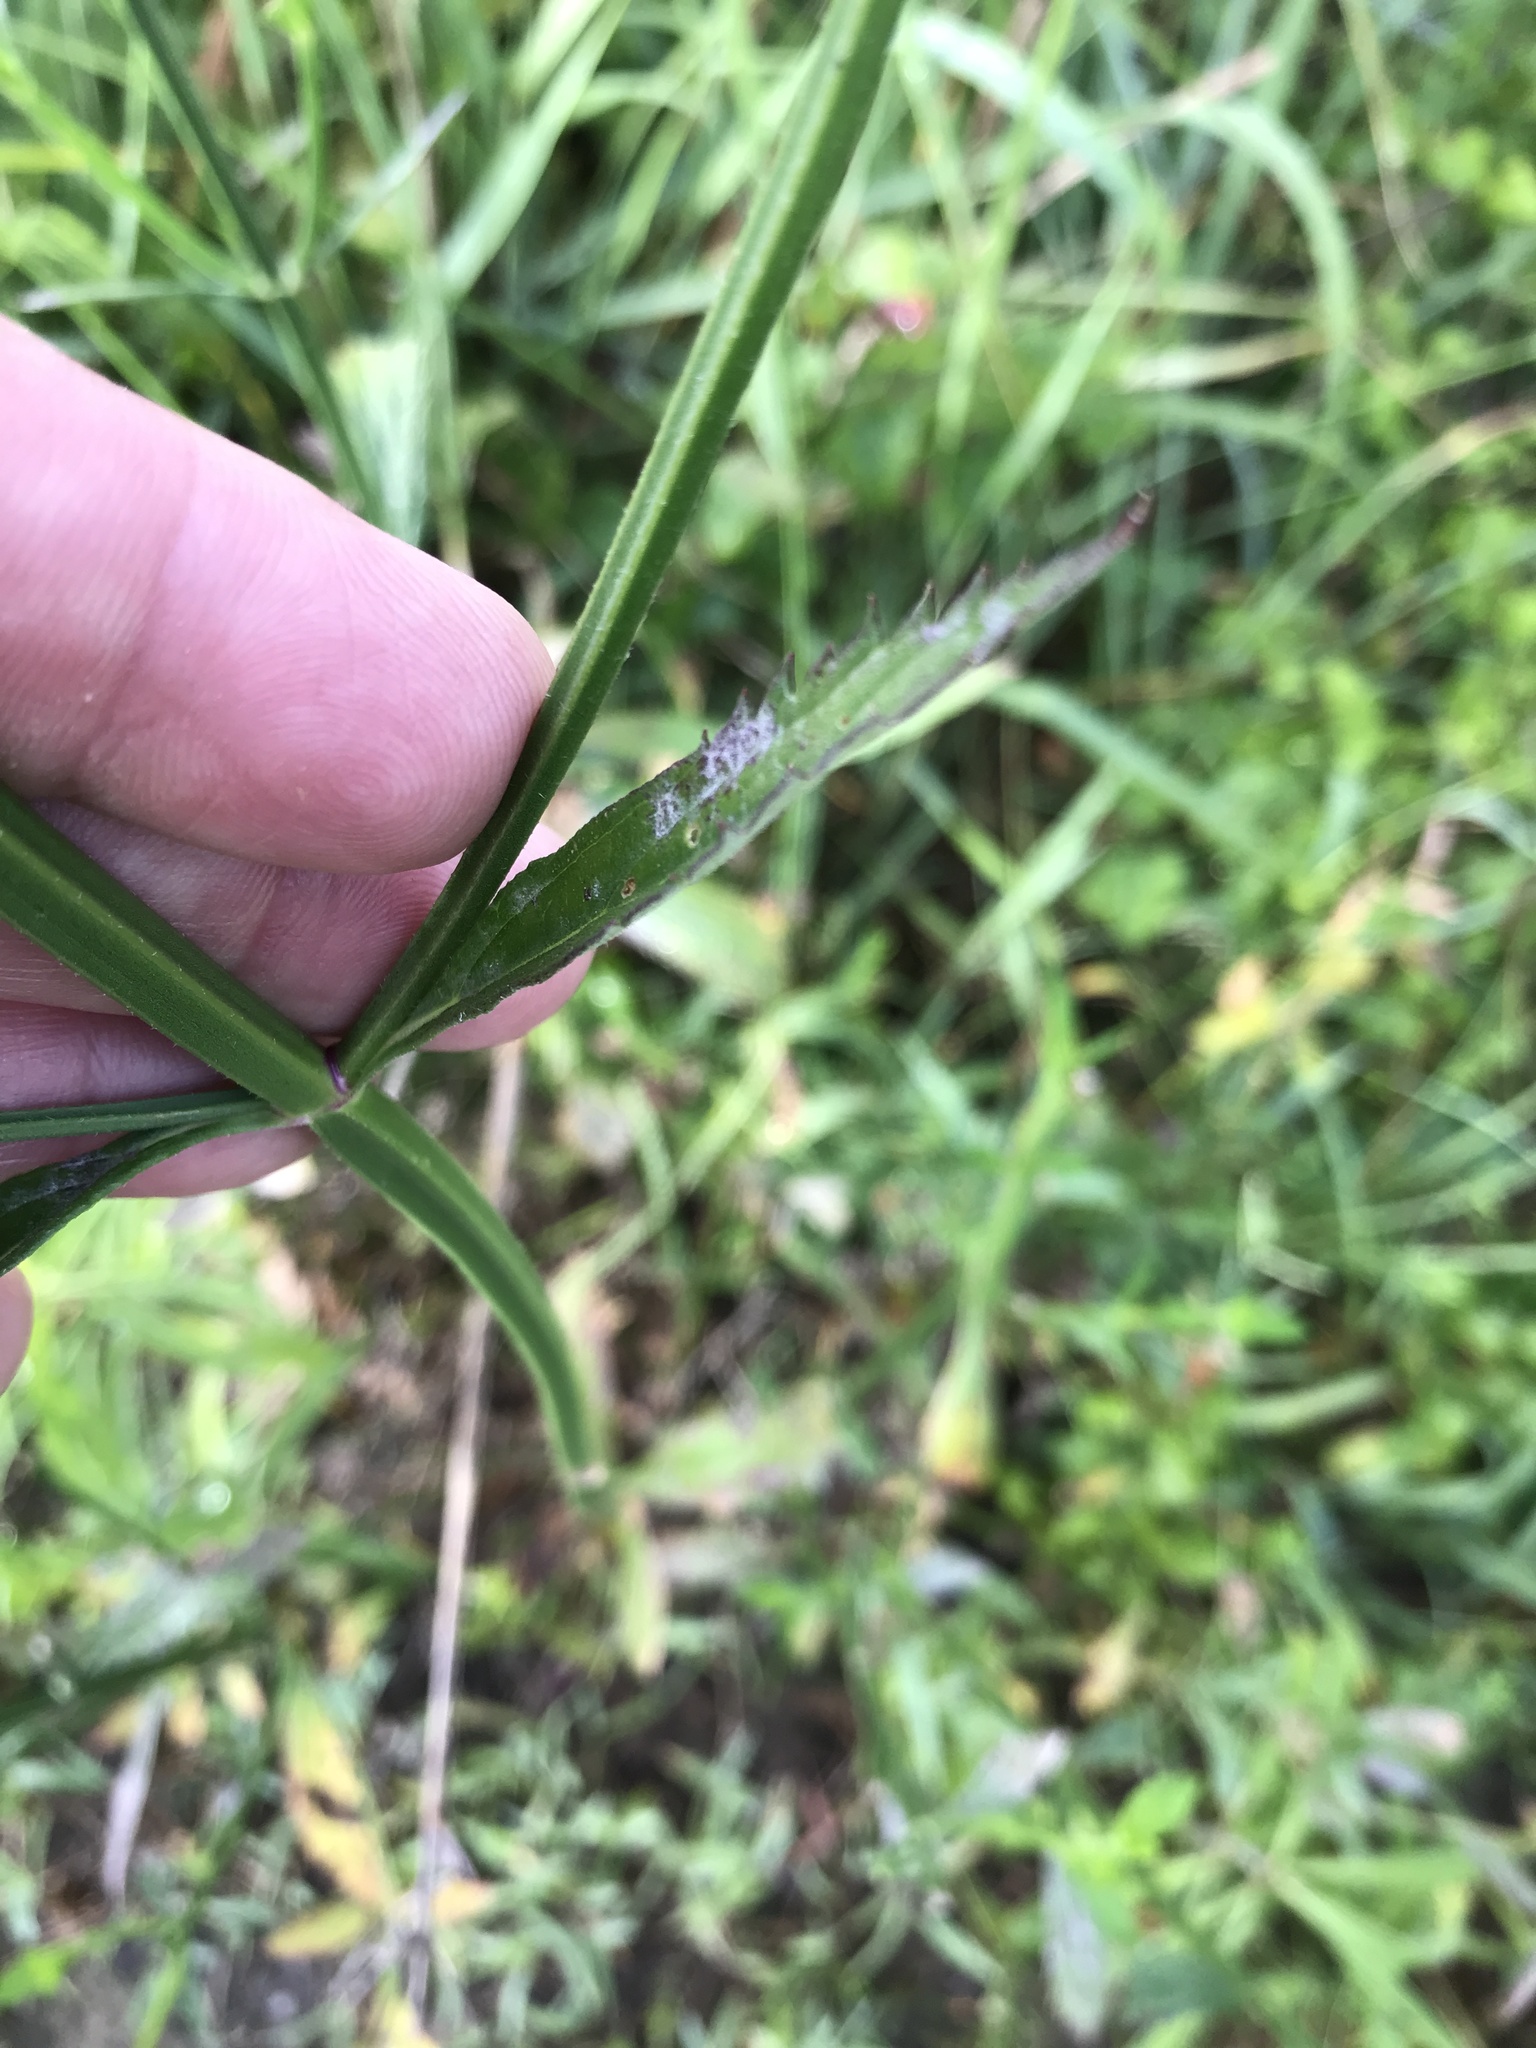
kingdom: Plantae
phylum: Tracheophyta
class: Magnoliopsida
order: Lamiales
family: Verbenaceae
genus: Verbena
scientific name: Verbena brasiliensis
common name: Brazilian vervain
